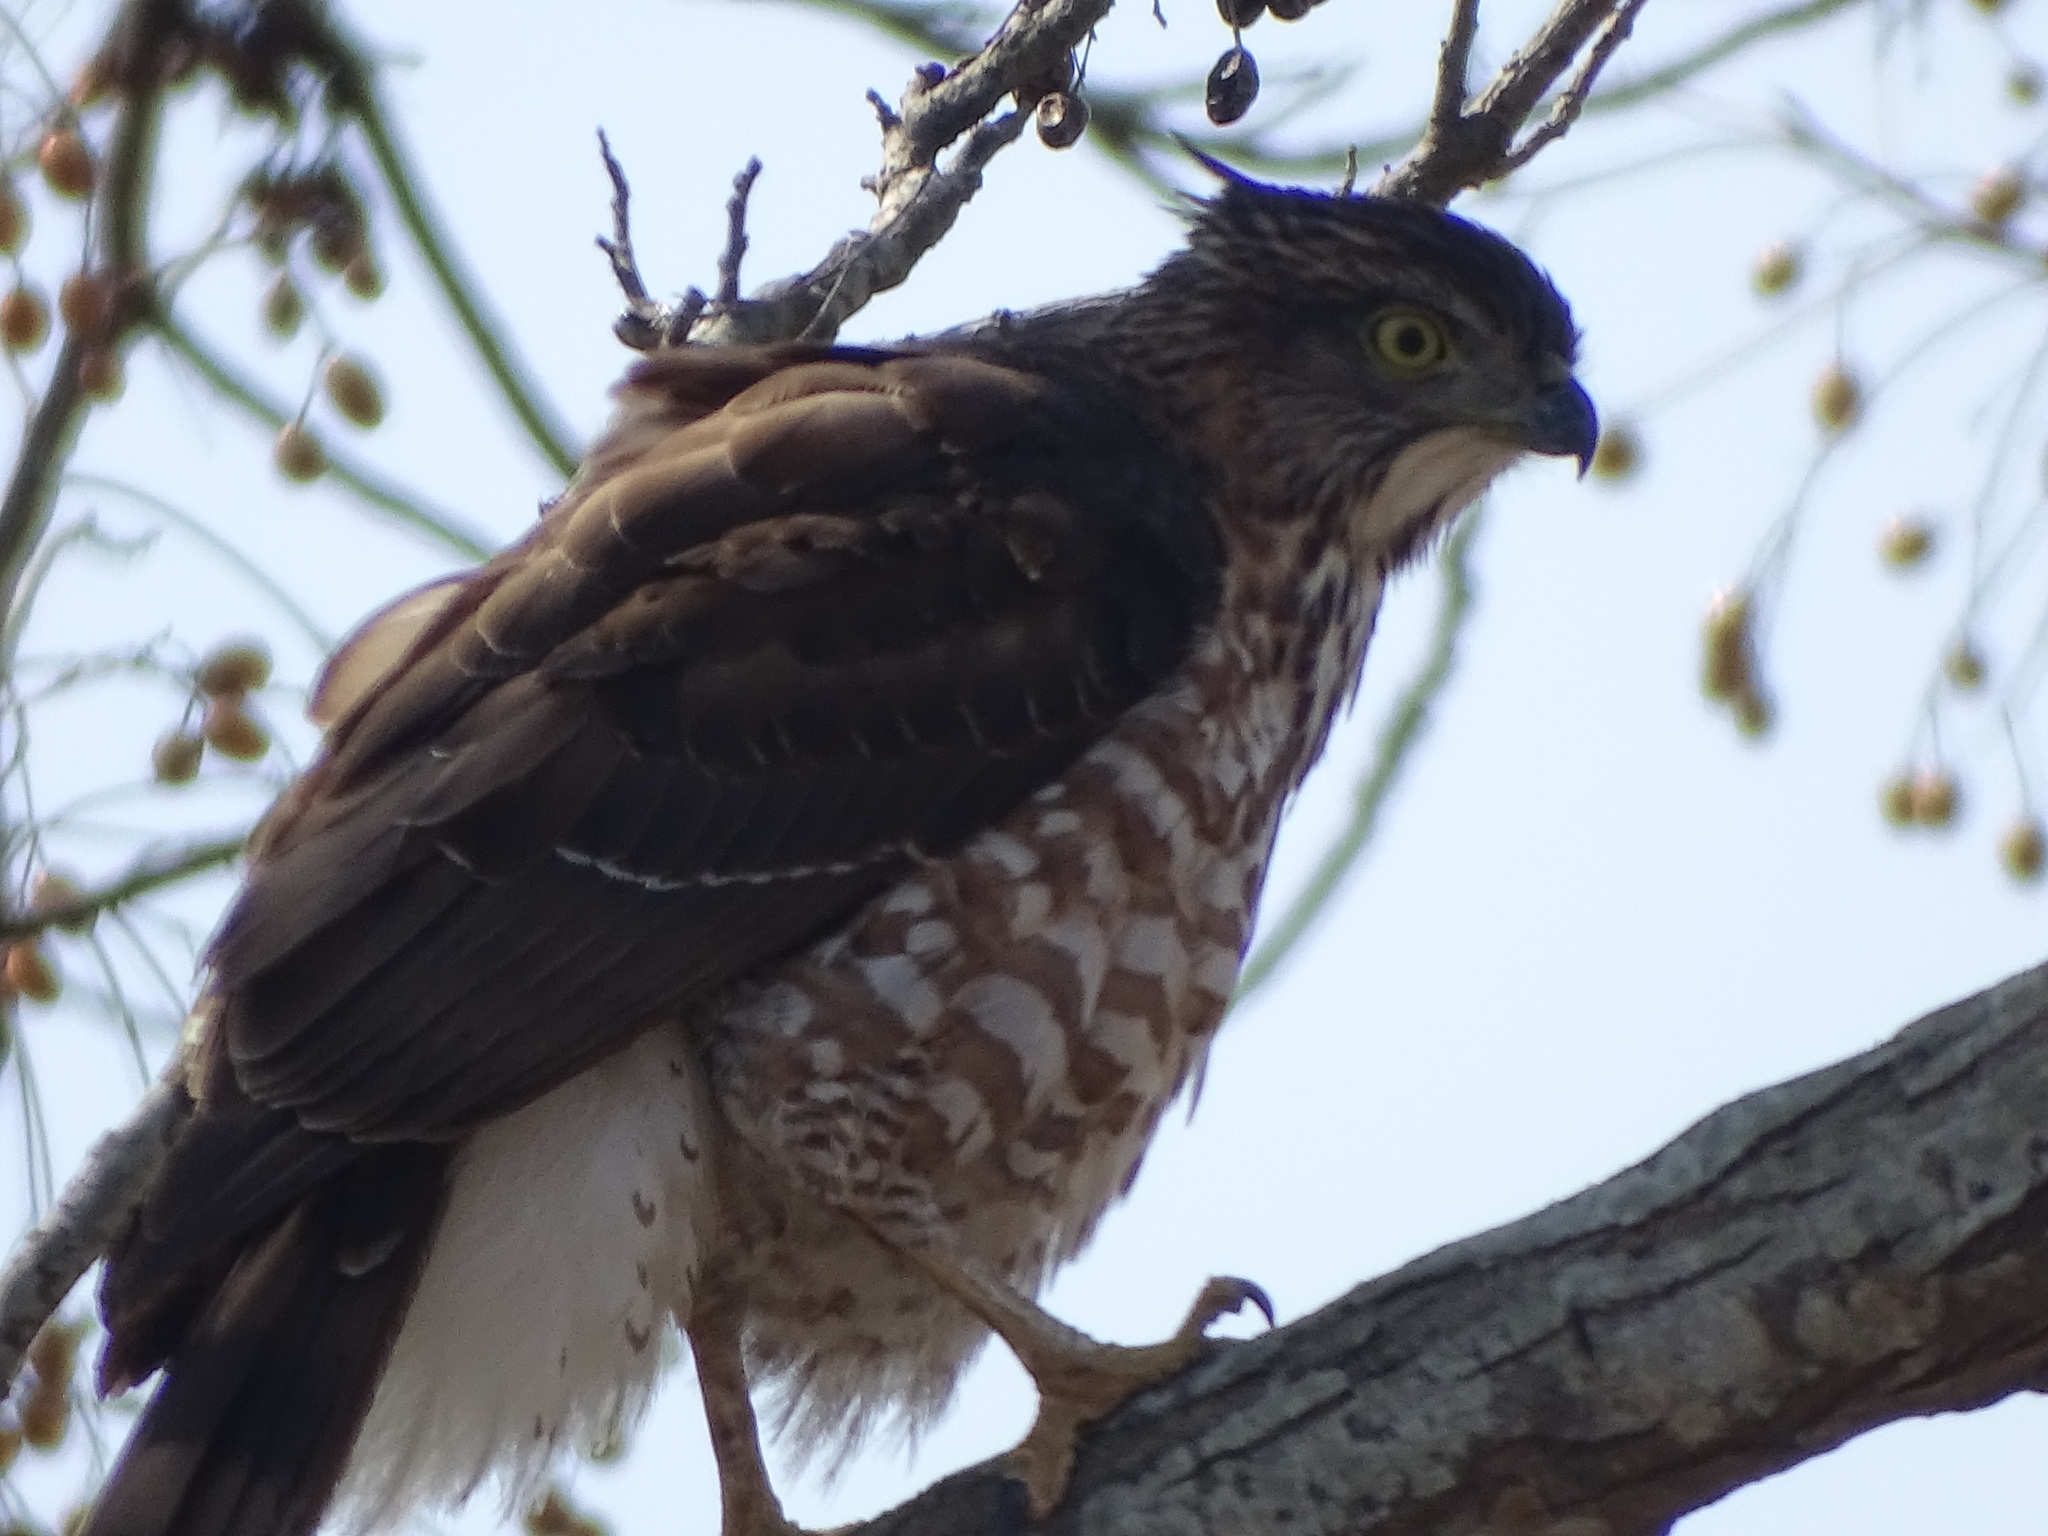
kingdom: Animalia
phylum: Chordata
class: Aves
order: Accipitriformes
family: Accipitridae
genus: Accipiter
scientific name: Accipiter trivirgatus
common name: Crested goshawk
